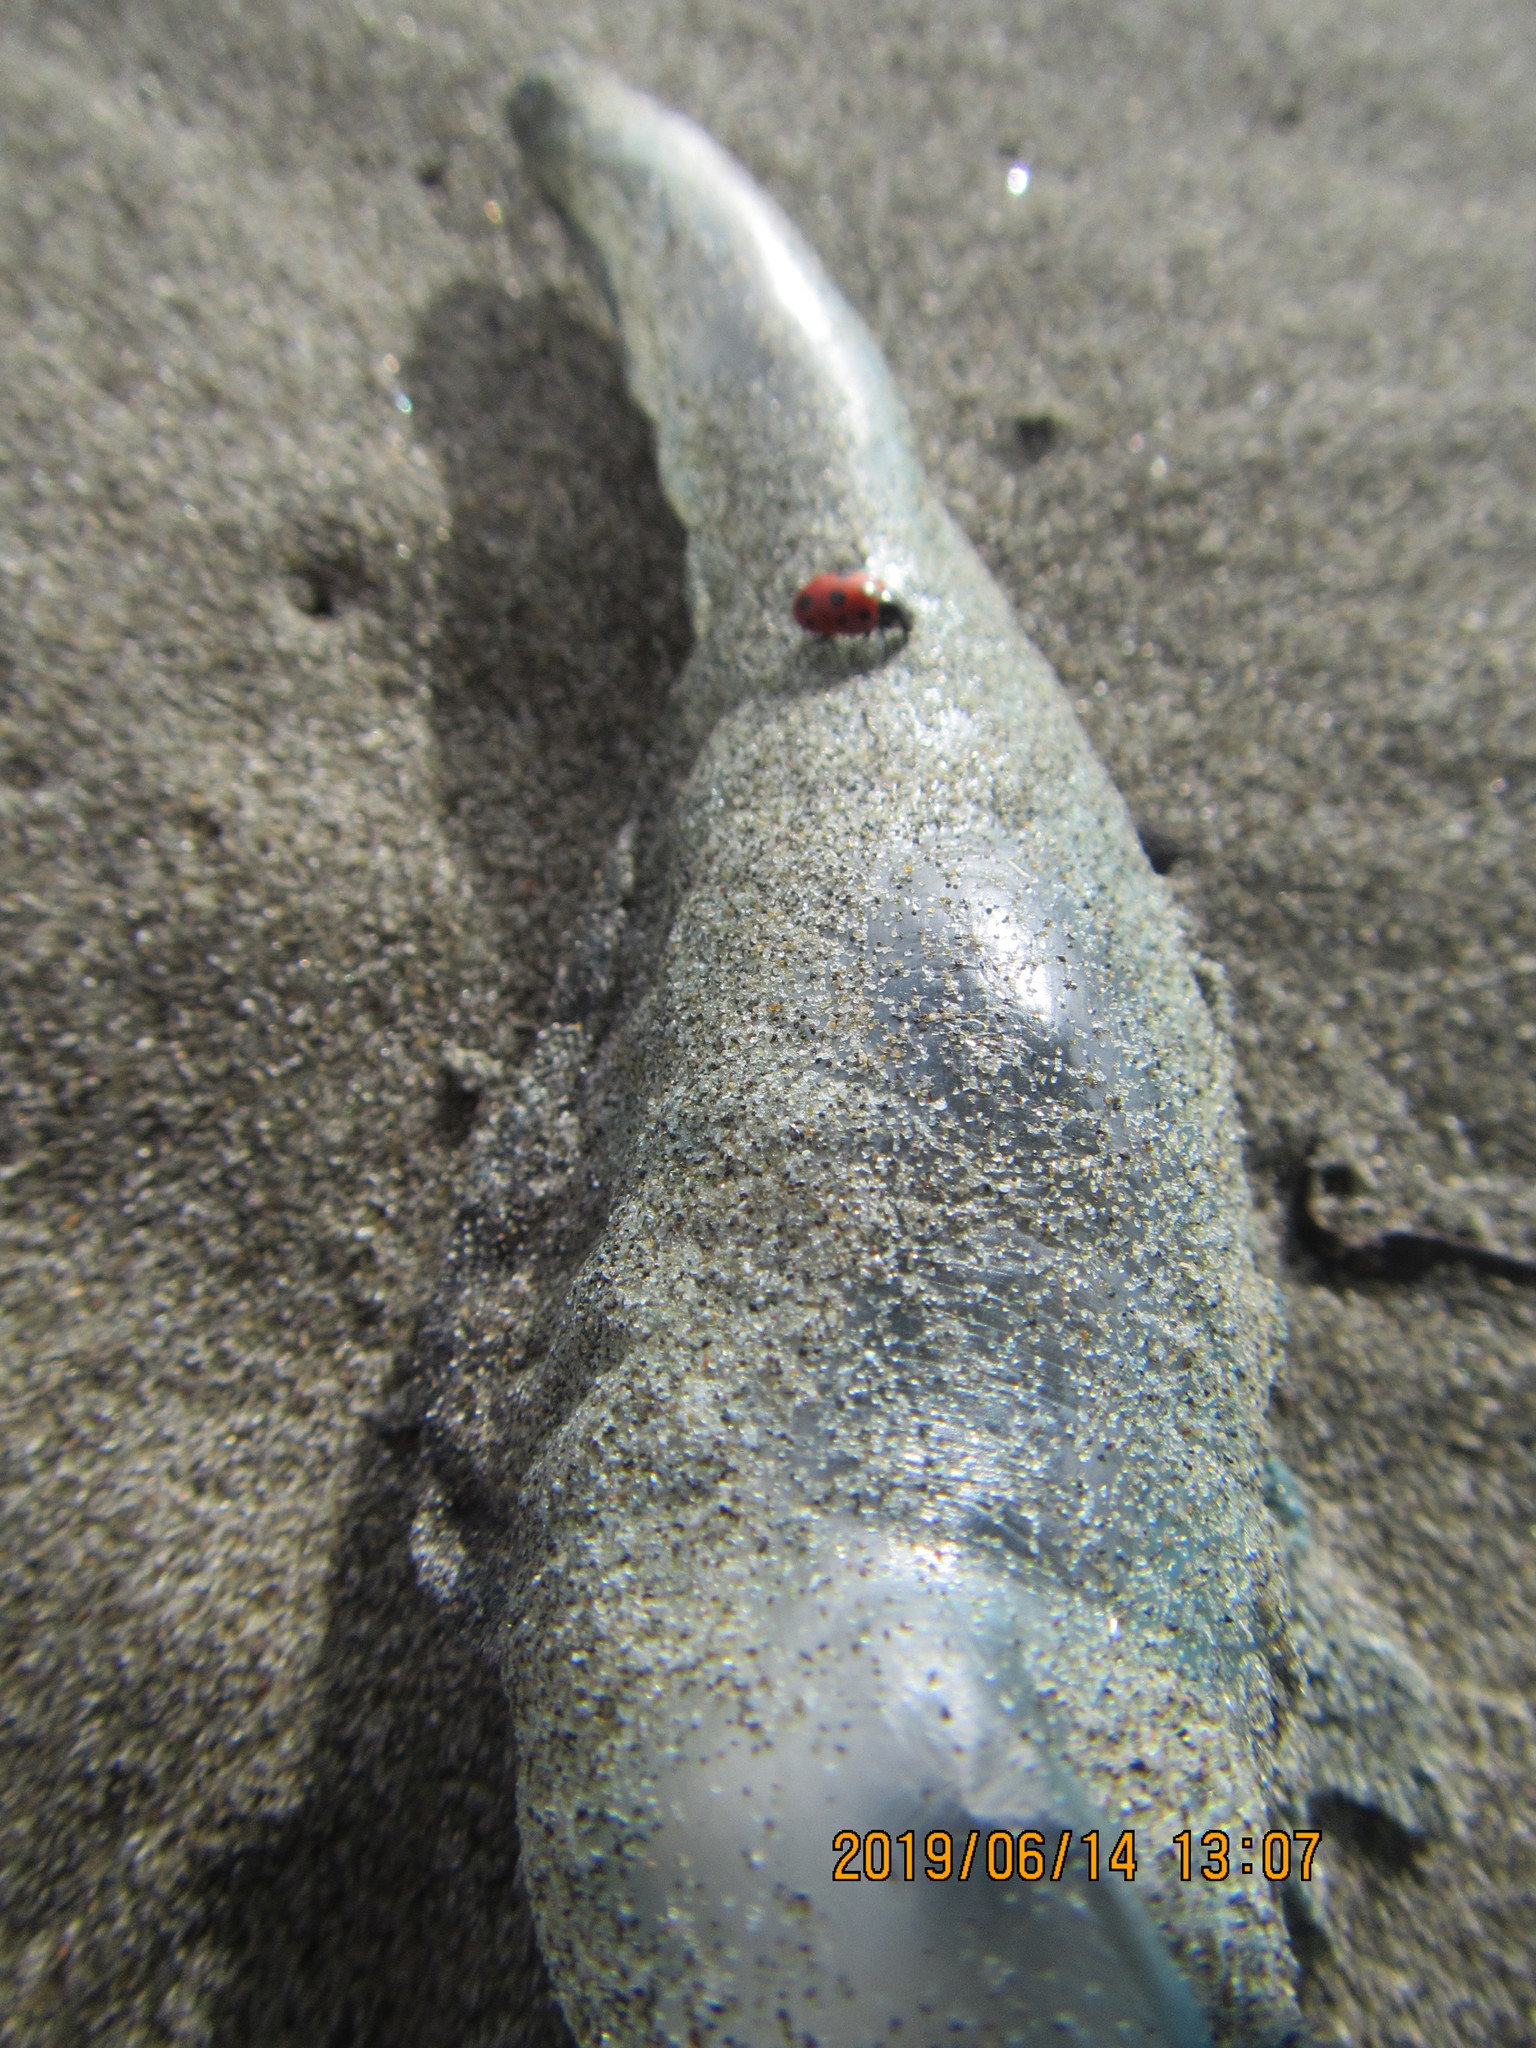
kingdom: Animalia
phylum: Arthropoda
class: Insecta
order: Coleoptera
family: Coccinellidae
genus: Coccinella
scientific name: Coccinella undecimpunctata
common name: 11-spot ladybird
